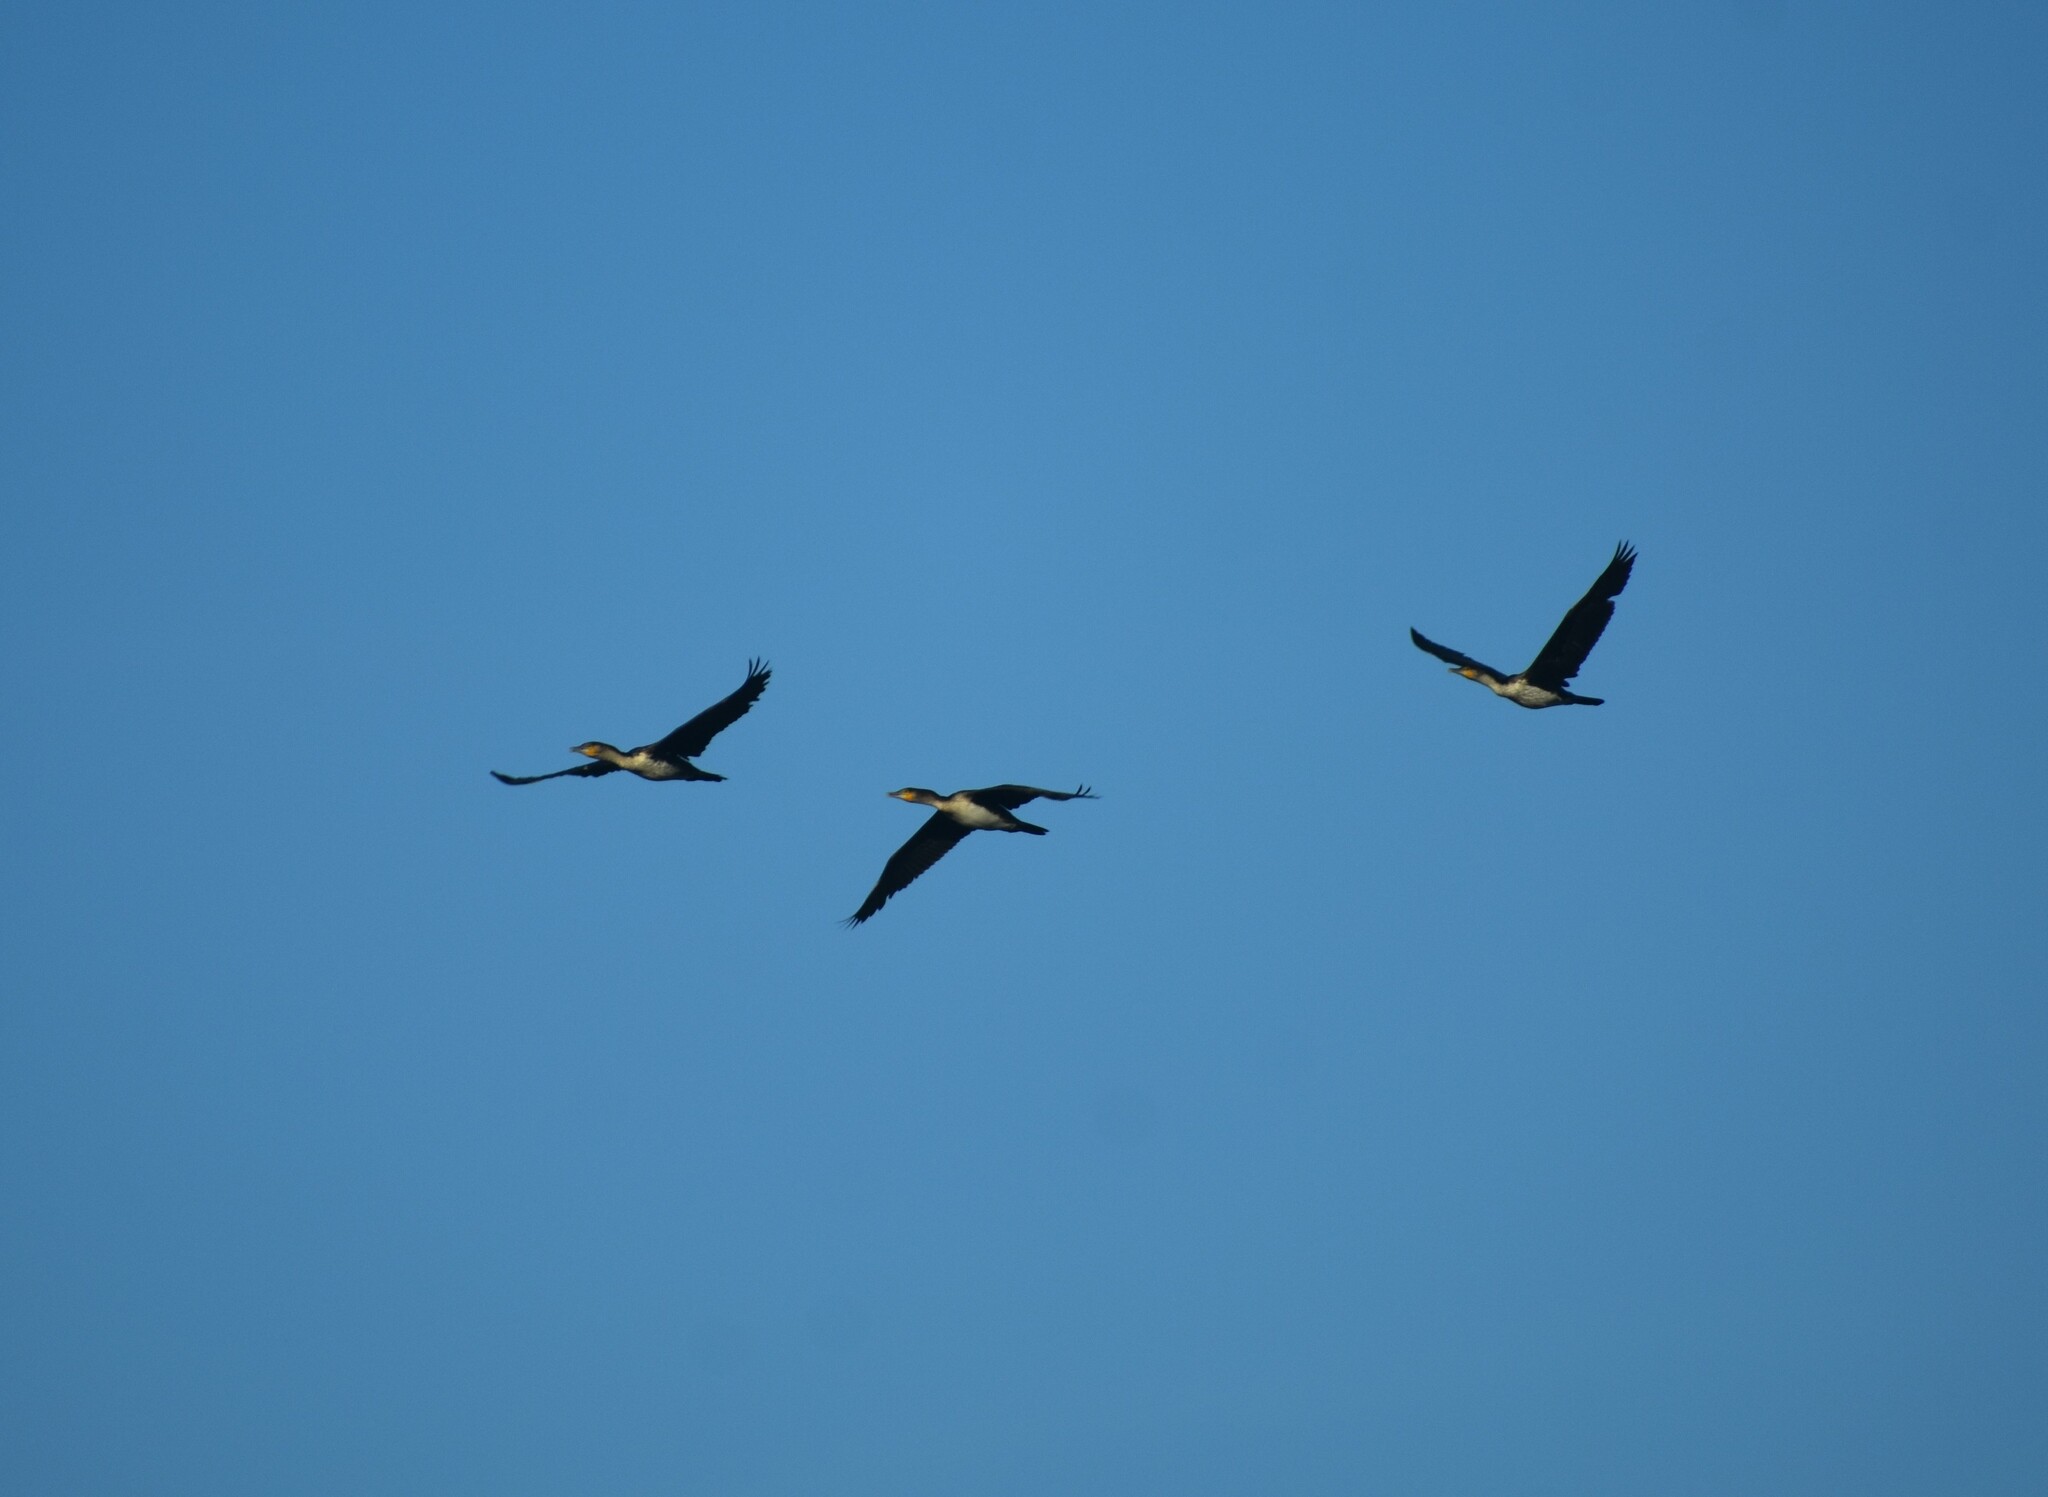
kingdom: Animalia
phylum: Chordata
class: Aves
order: Suliformes
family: Phalacrocoracidae
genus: Phalacrocorax
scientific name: Phalacrocorax carbo
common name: Great cormorant
